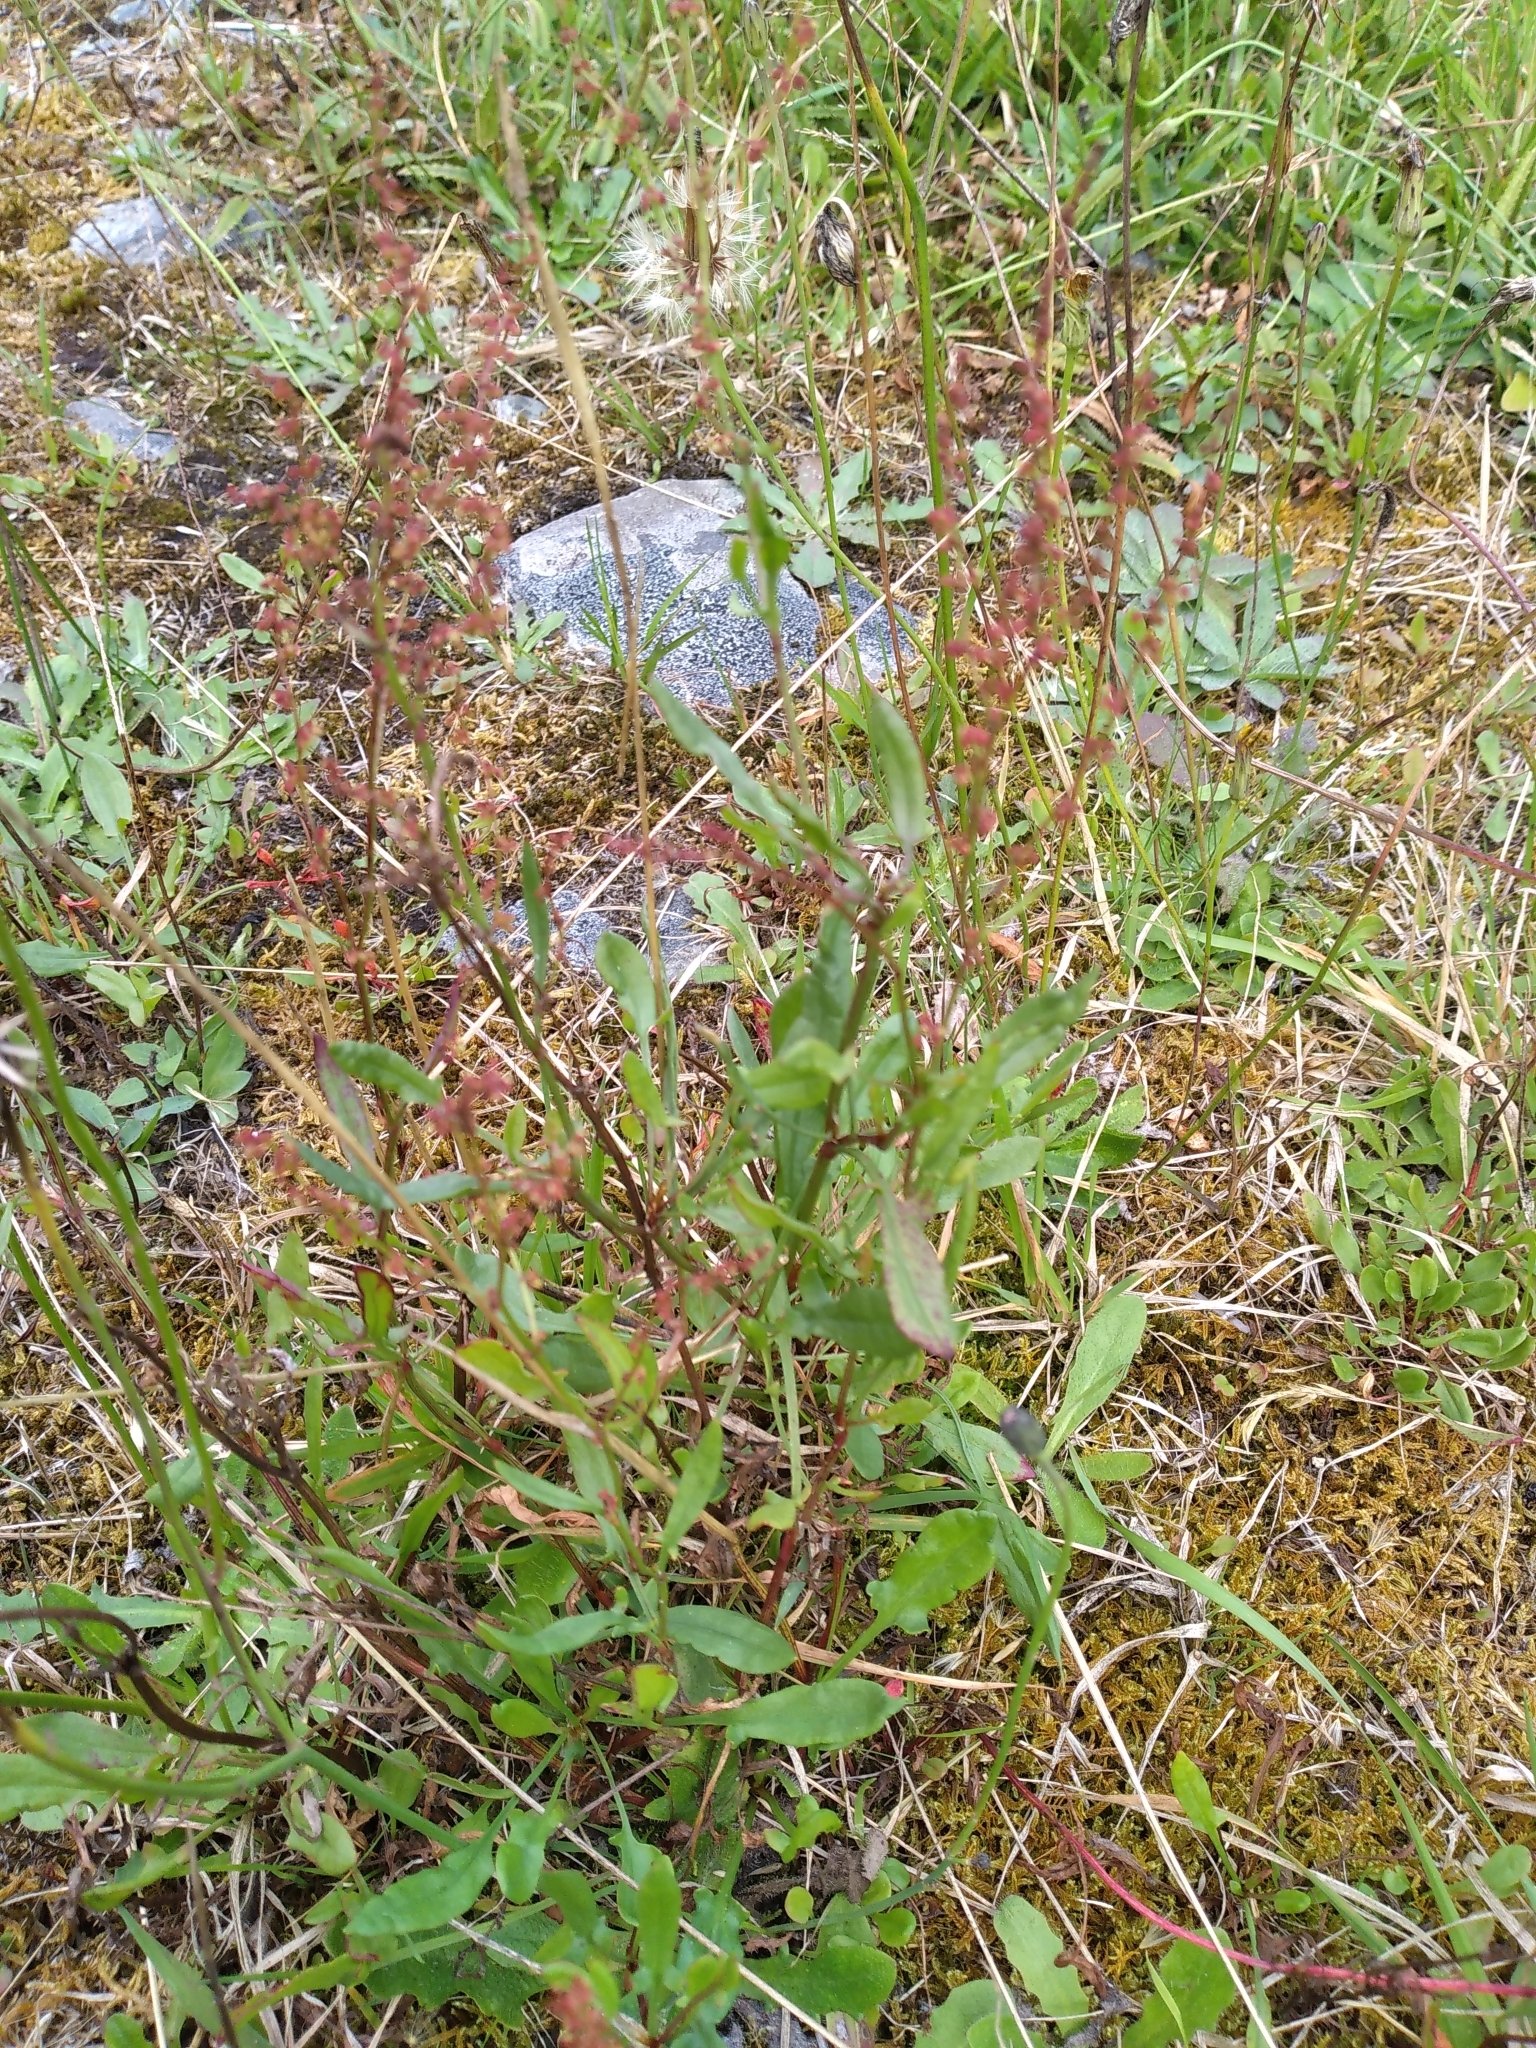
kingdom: Plantae
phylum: Tracheophyta
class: Magnoliopsida
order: Caryophyllales
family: Polygonaceae
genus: Rumex
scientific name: Rumex acetosella
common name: Common sheep sorrel
